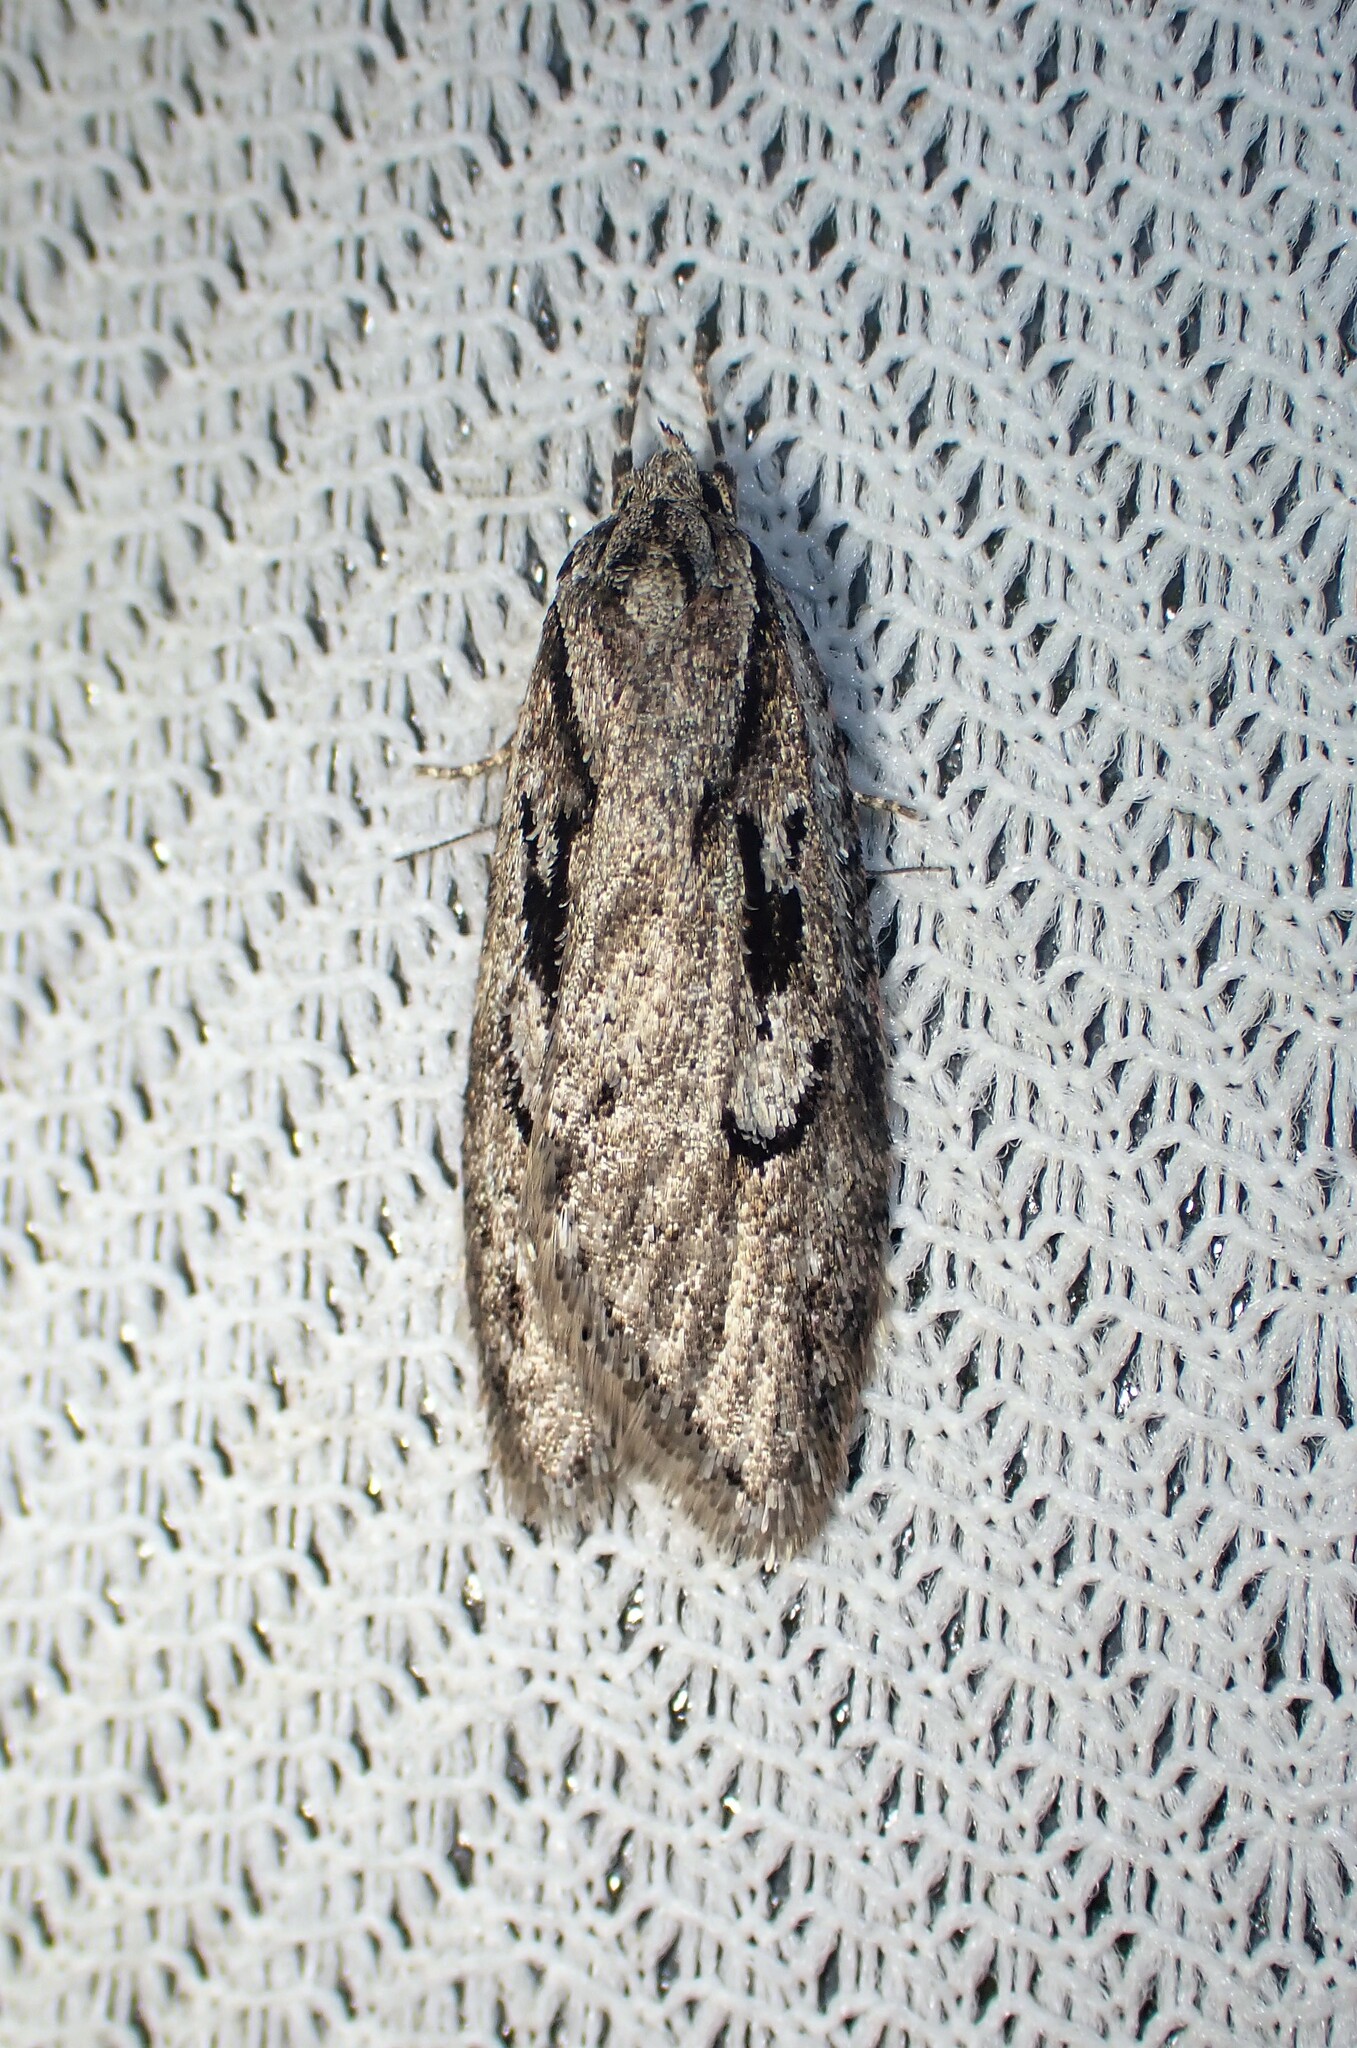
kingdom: Animalia
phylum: Arthropoda
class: Insecta
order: Lepidoptera
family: Depressariidae
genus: Semioscopis
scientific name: Semioscopis aurorella
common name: Aurora flatbody moth
